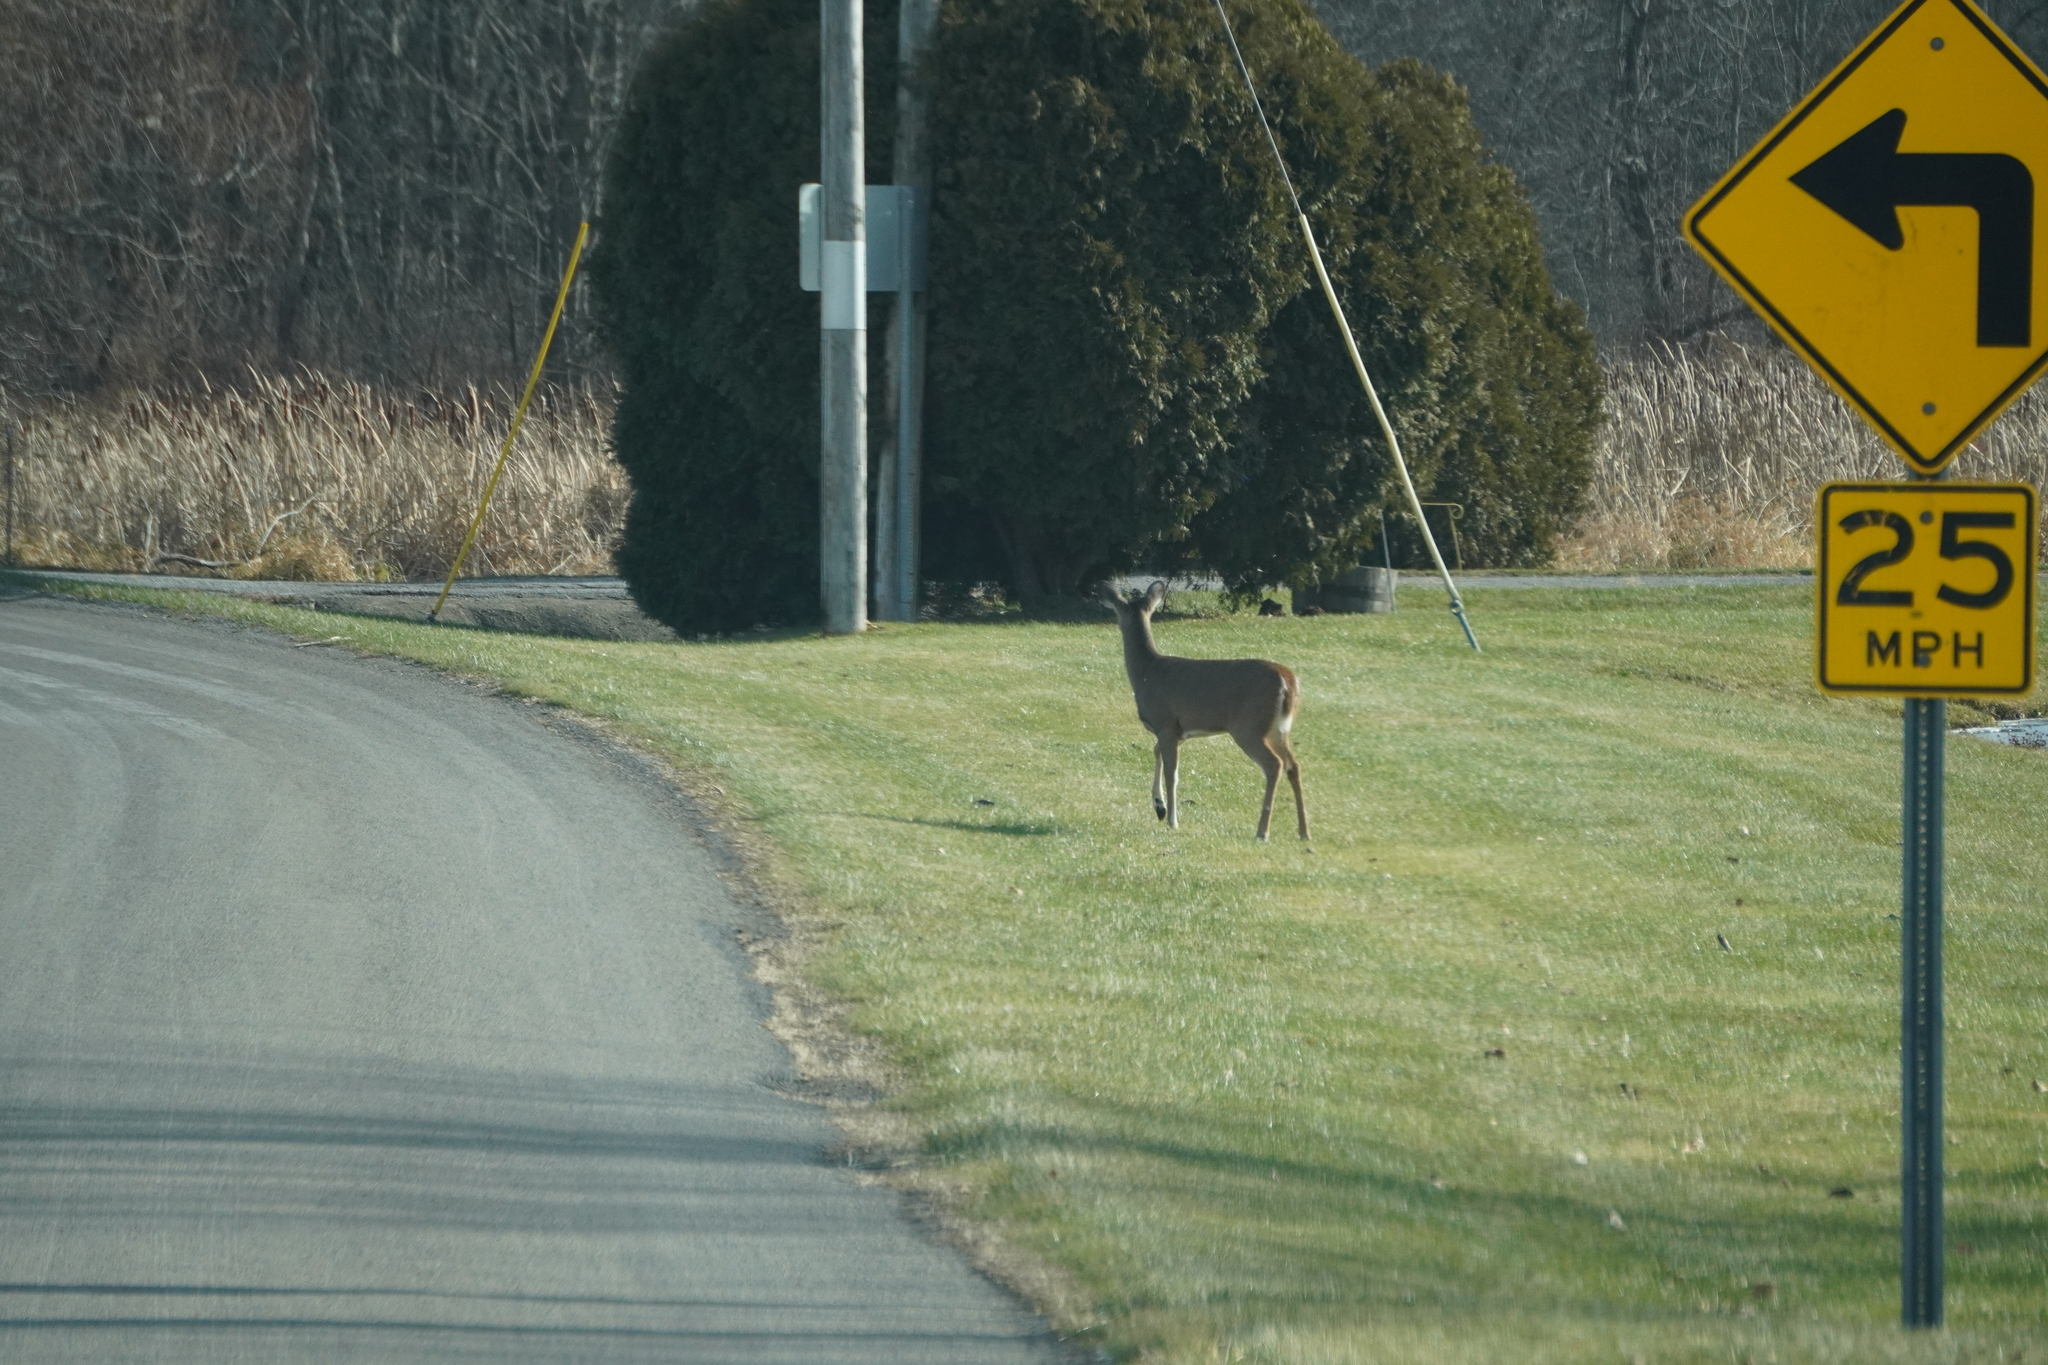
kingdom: Animalia
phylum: Chordata
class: Mammalia
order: Artiodactyla
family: Cervidae
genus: Odocoileus
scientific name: Odocoileus virginianus
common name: White-tailed deer
